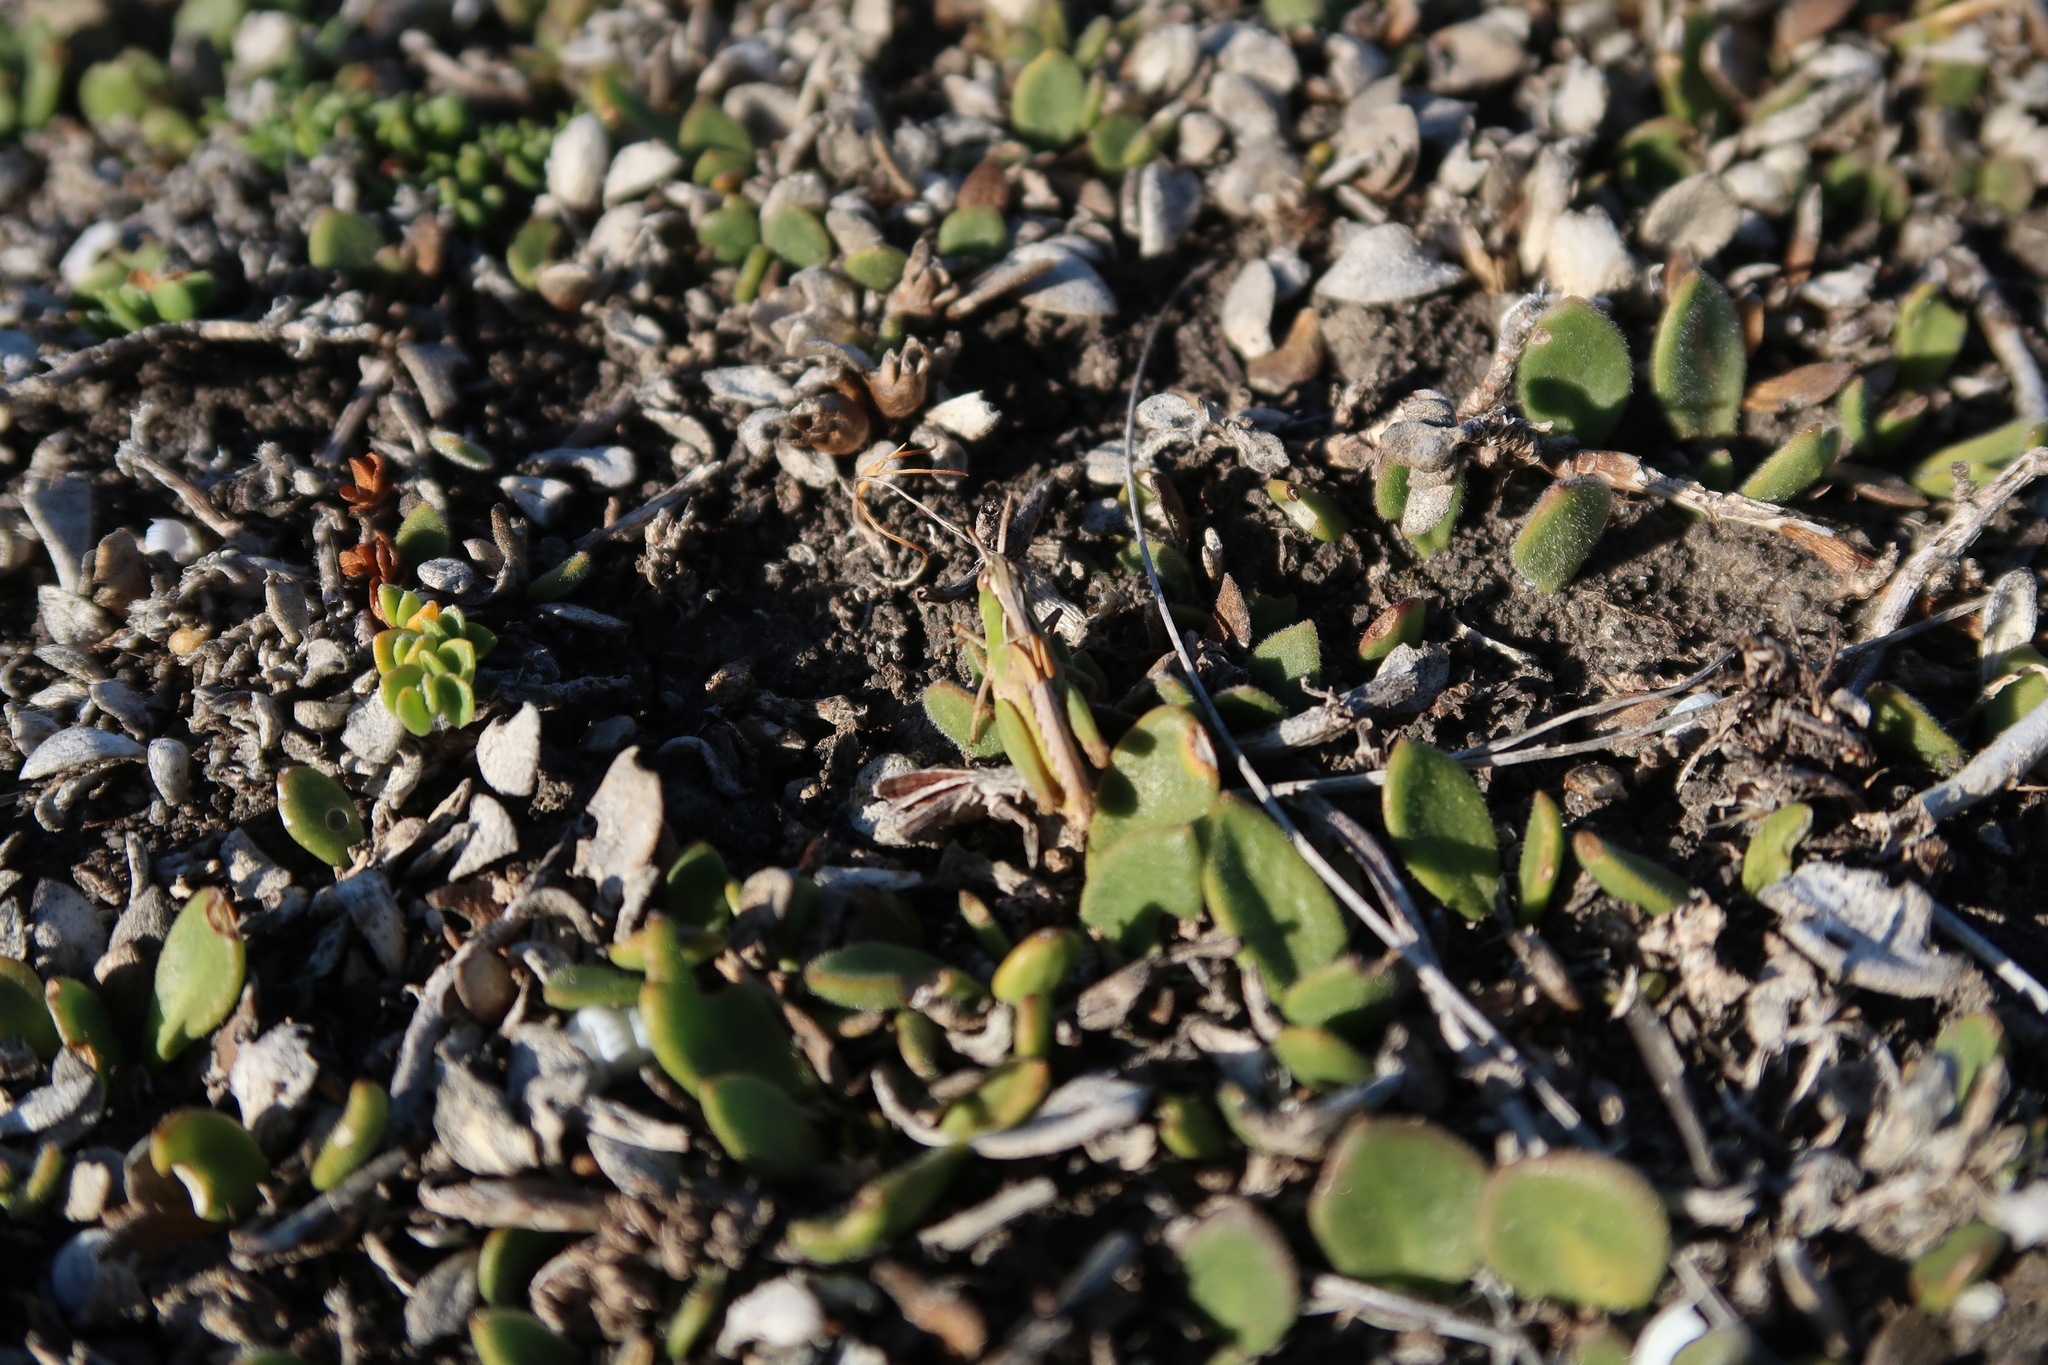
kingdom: Animalia
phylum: Arthropoda
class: Insecta
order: Orthoptera
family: Acrididae
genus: Schizobothrus
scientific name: Schizobothrus flavovittatus
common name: Disappearing grasshopper
